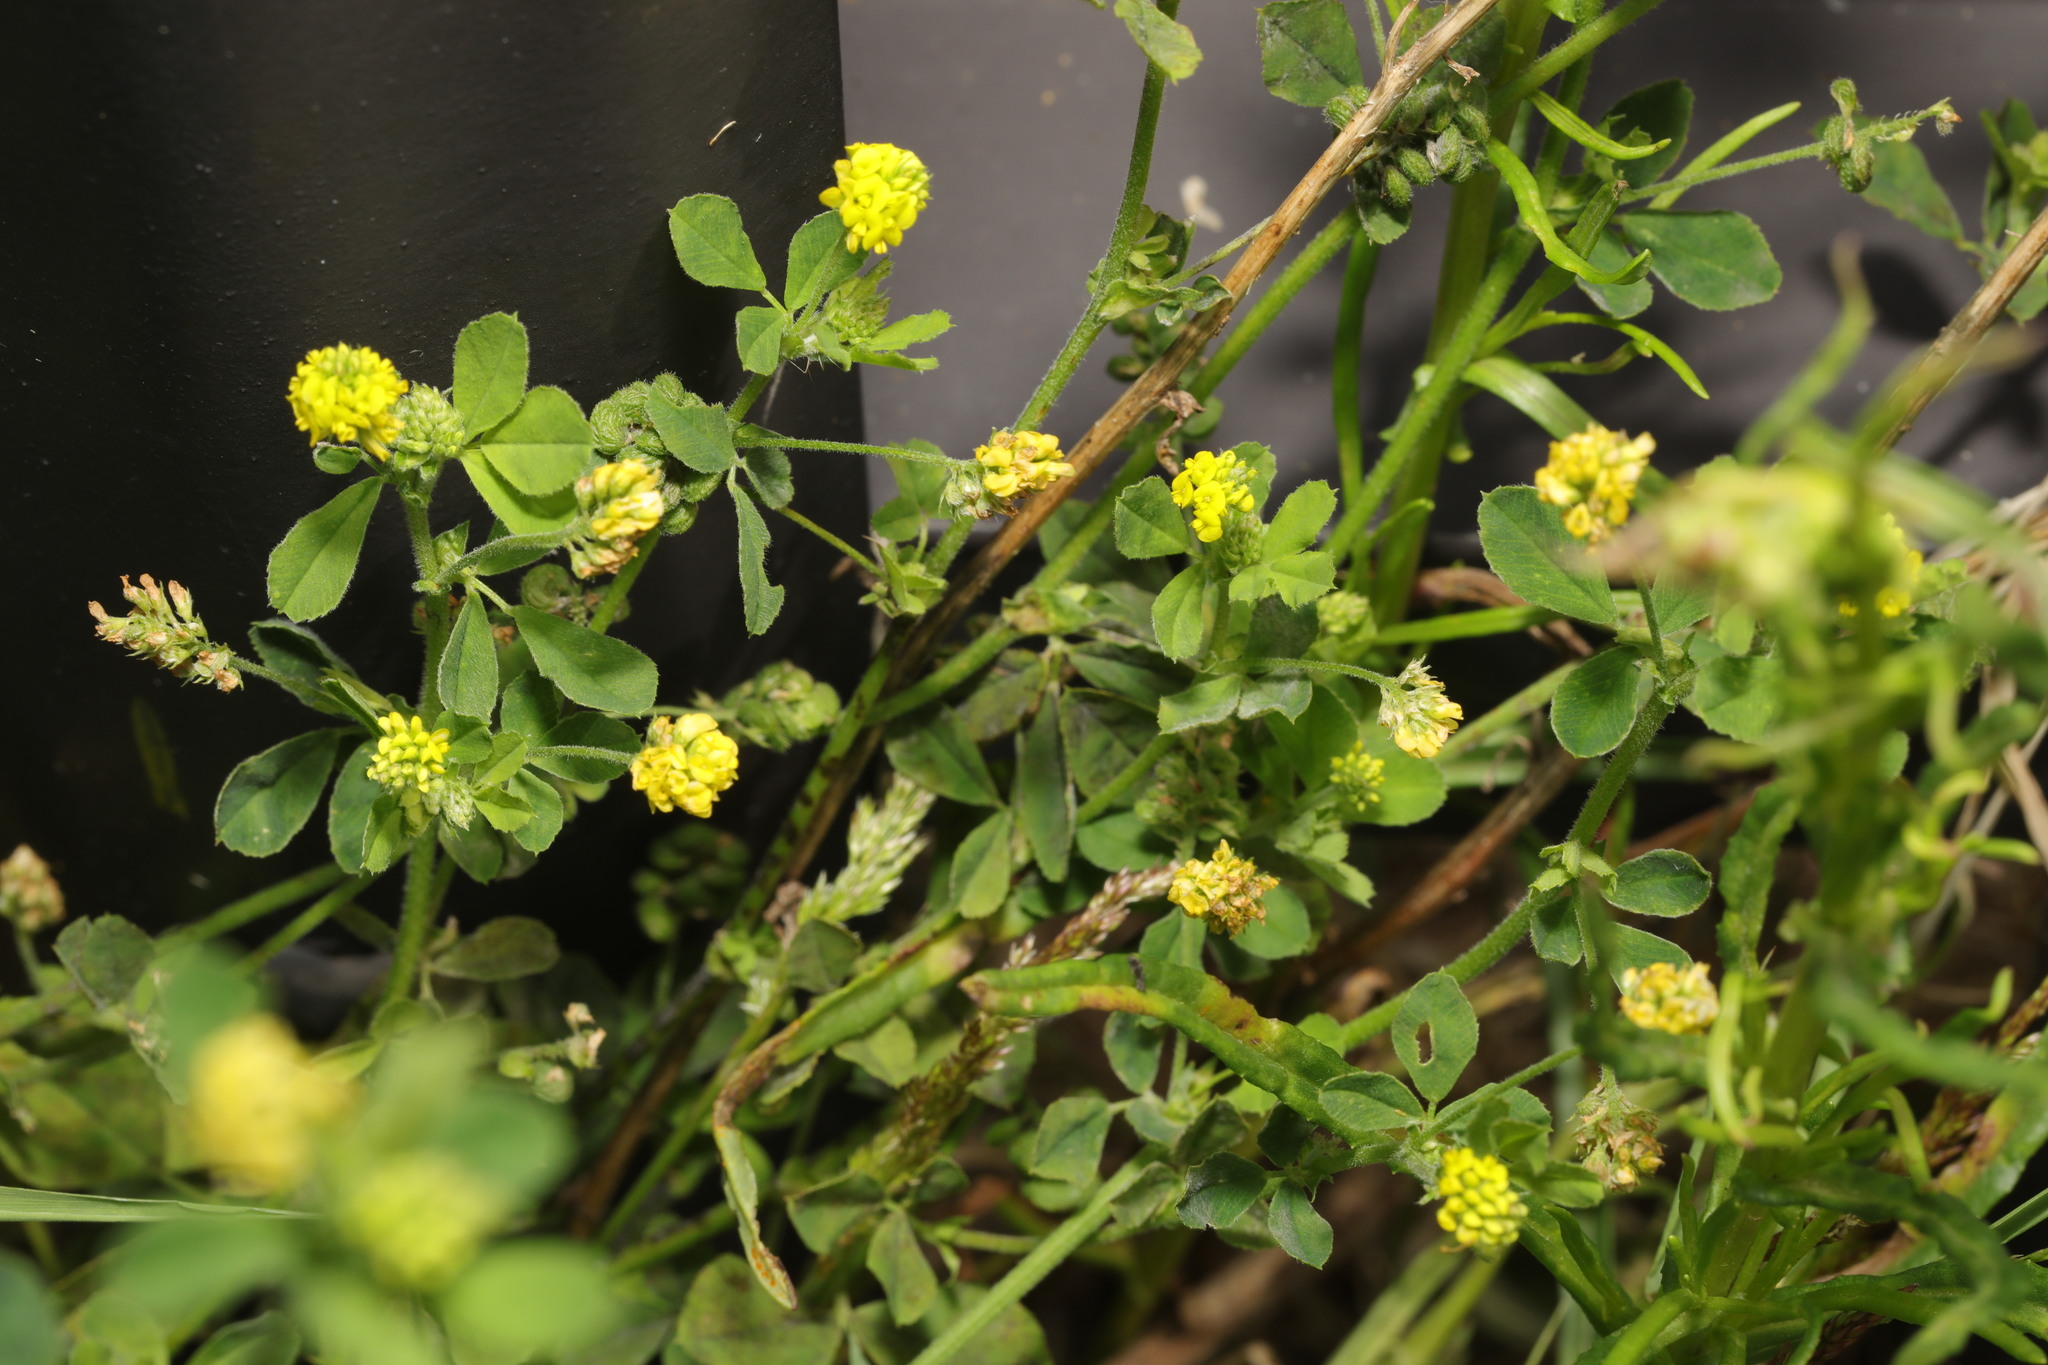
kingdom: Plantae
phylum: Tracheophyta
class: Magnoliopsida
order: Fabales
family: Fabaceae
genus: Medicago
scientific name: Medicago lupulina
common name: Black medick
